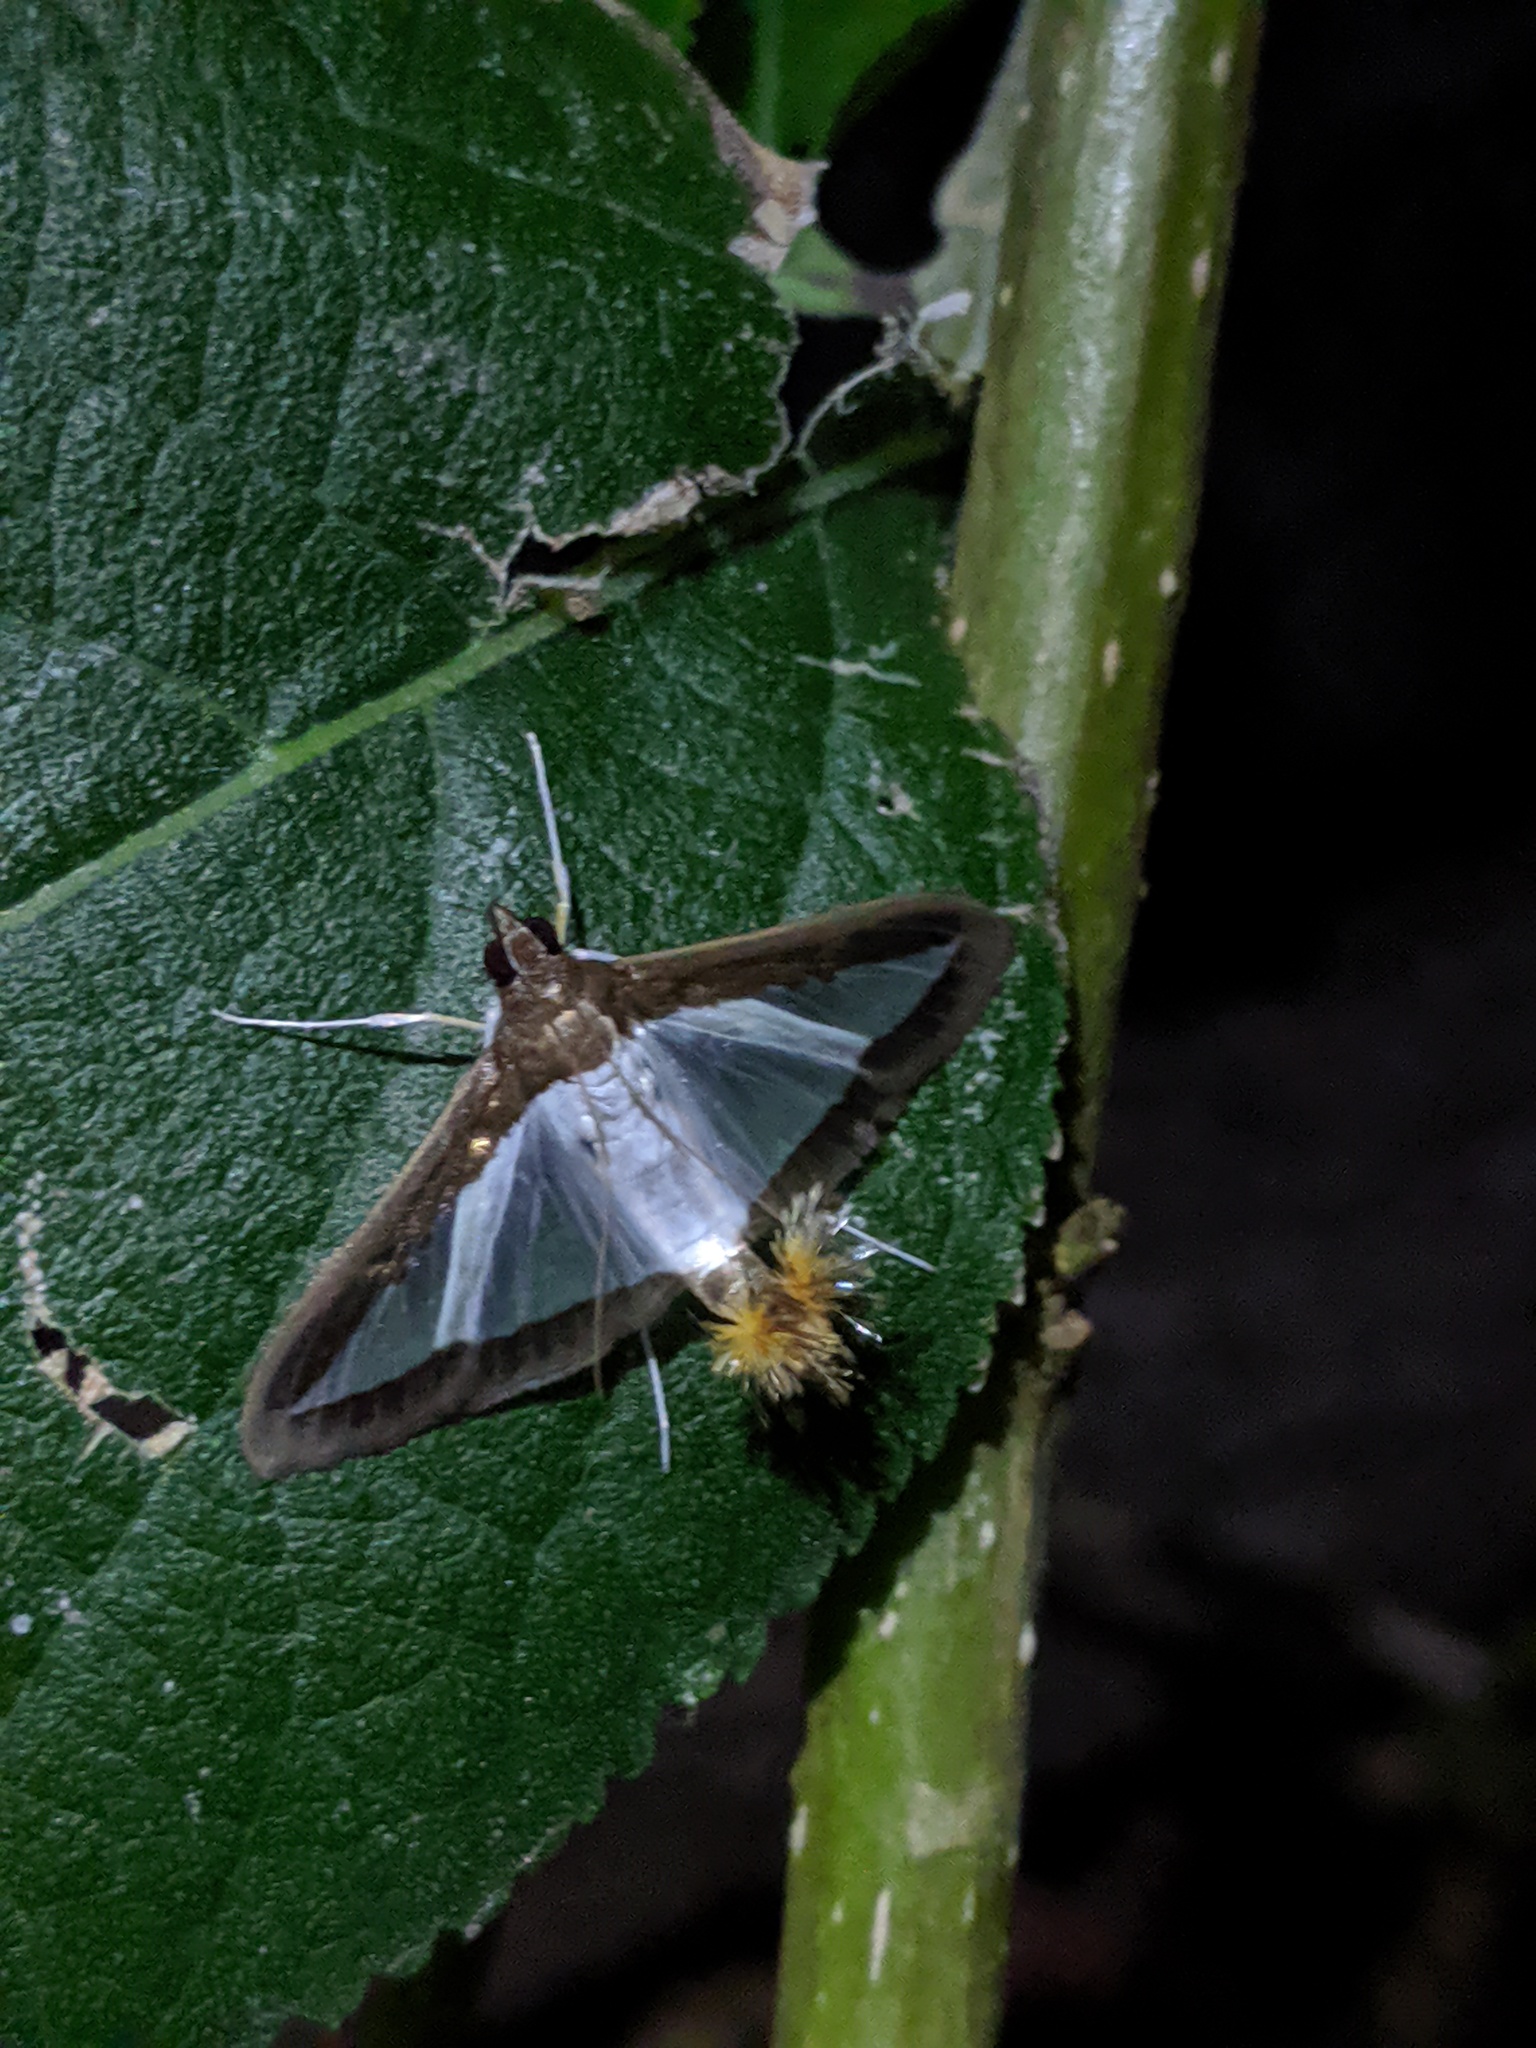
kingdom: Animalia
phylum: Arthropoda
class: Insecta
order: Lepidoptera
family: Crambidae
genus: Diaphania
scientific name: Diaphania hyalinata
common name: Melonworm
